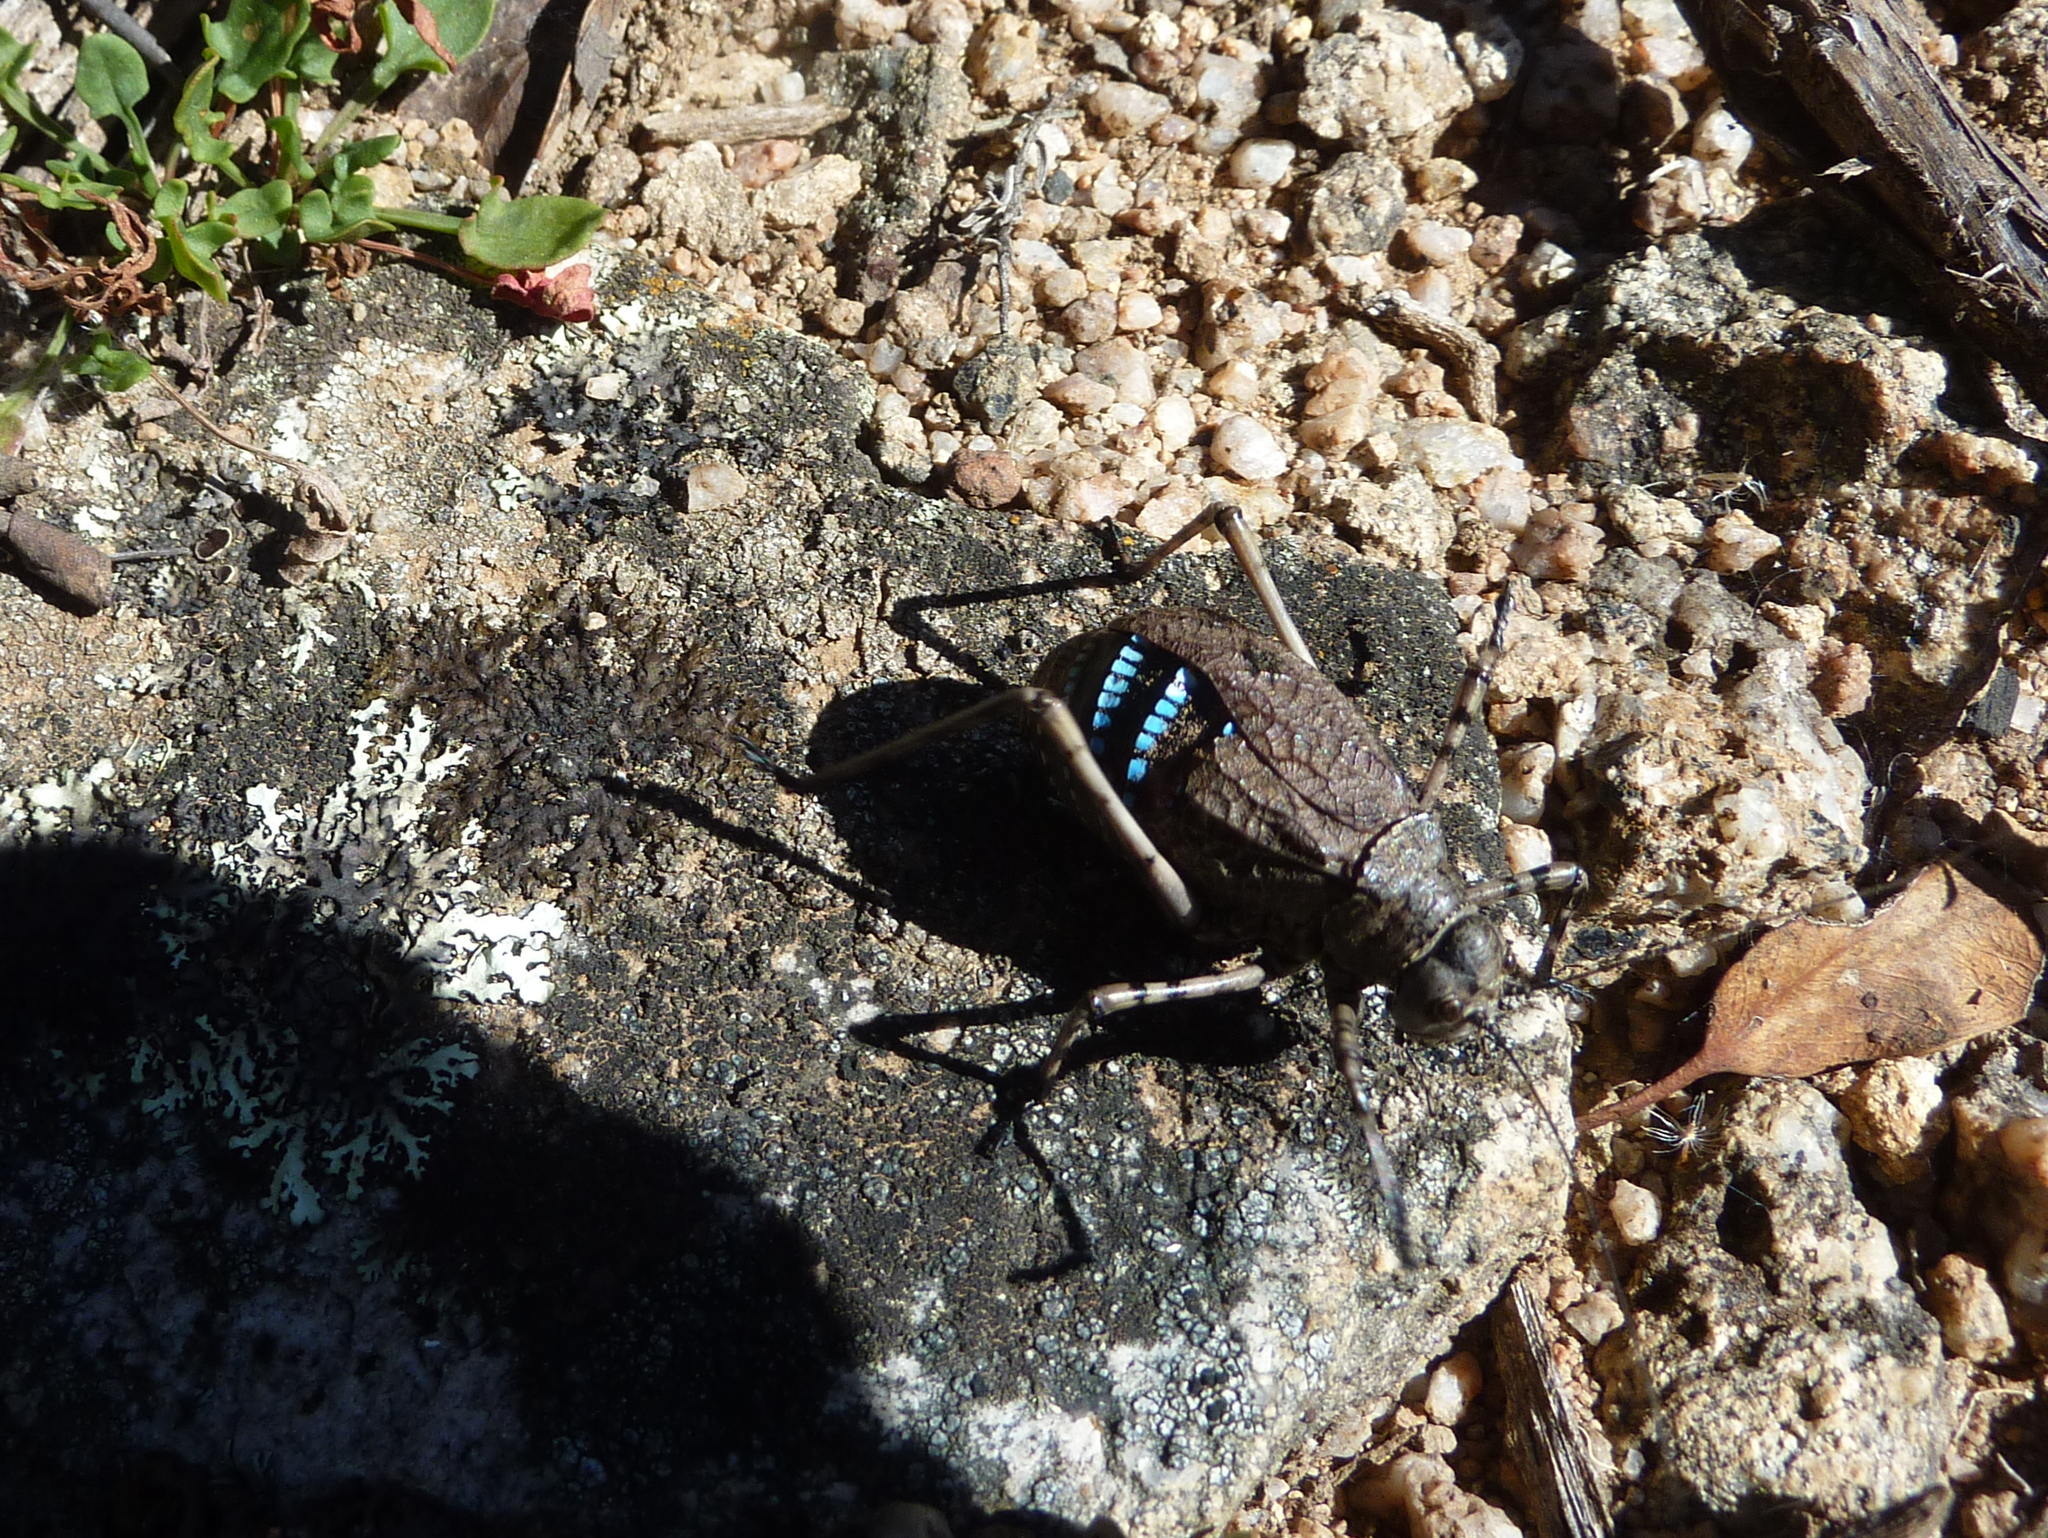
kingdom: Animalia
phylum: Arthropoda
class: Insecta
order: Orthoptera
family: Tettigoniidae
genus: Acripeza
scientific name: Acripeza reticulata
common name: Mountain katydid
